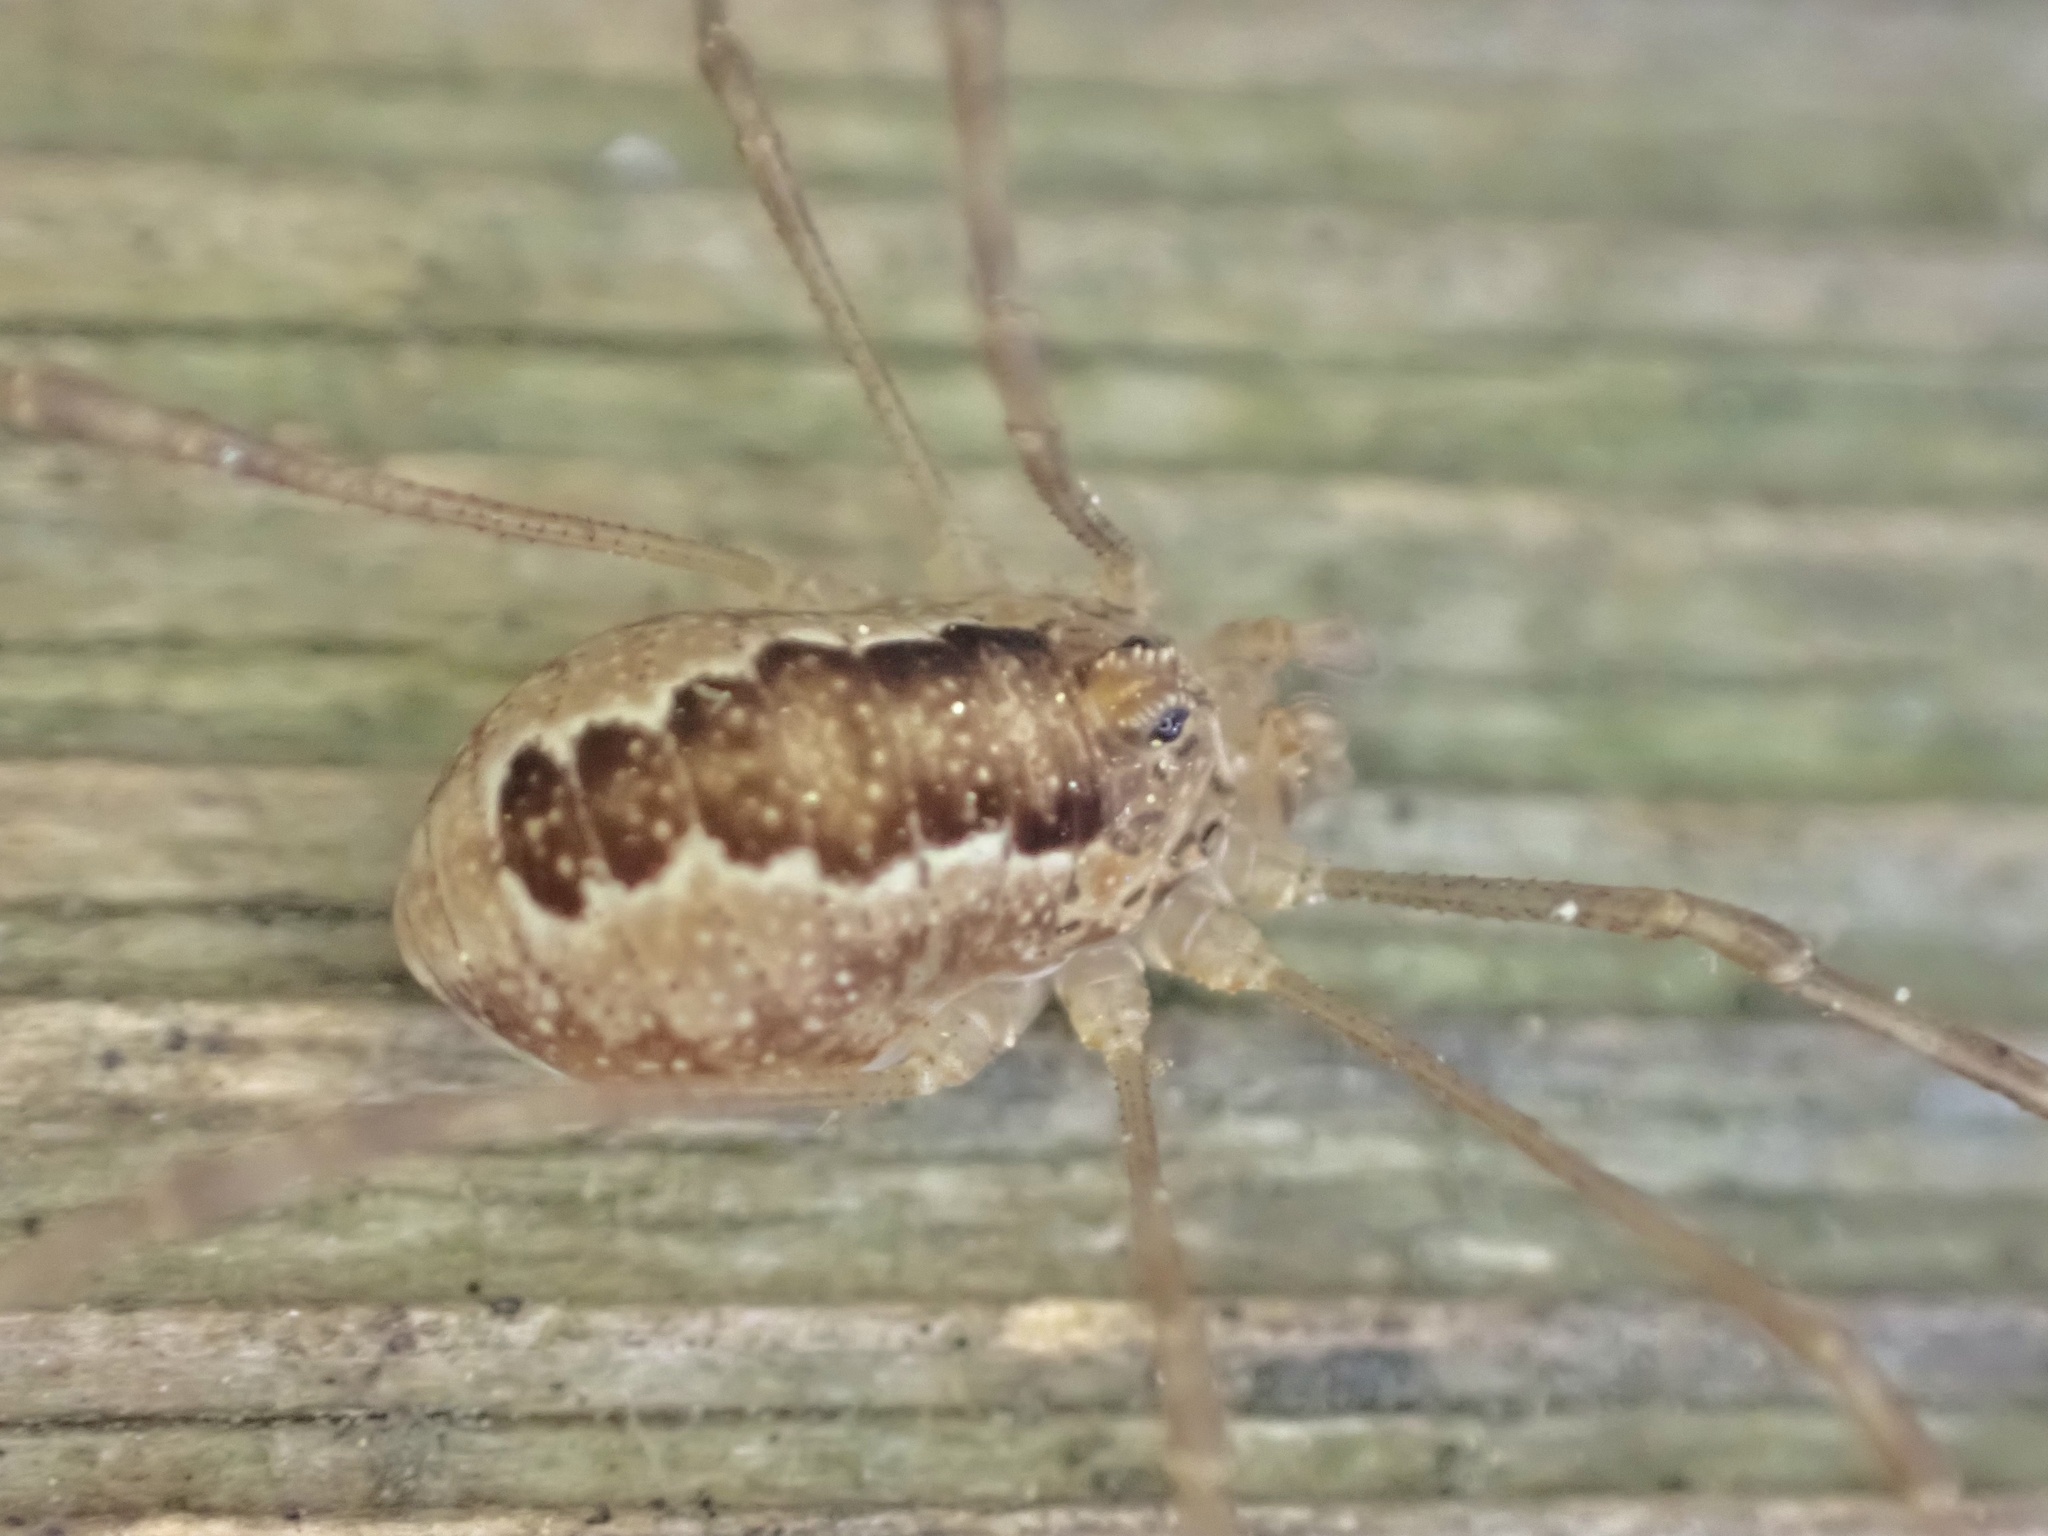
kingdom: Animalia
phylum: Arthropoda
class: Arachnida
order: Opiliones
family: Phalangiidae
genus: Rilaena
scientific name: Rilaena triangularis
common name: Spring harvestman
